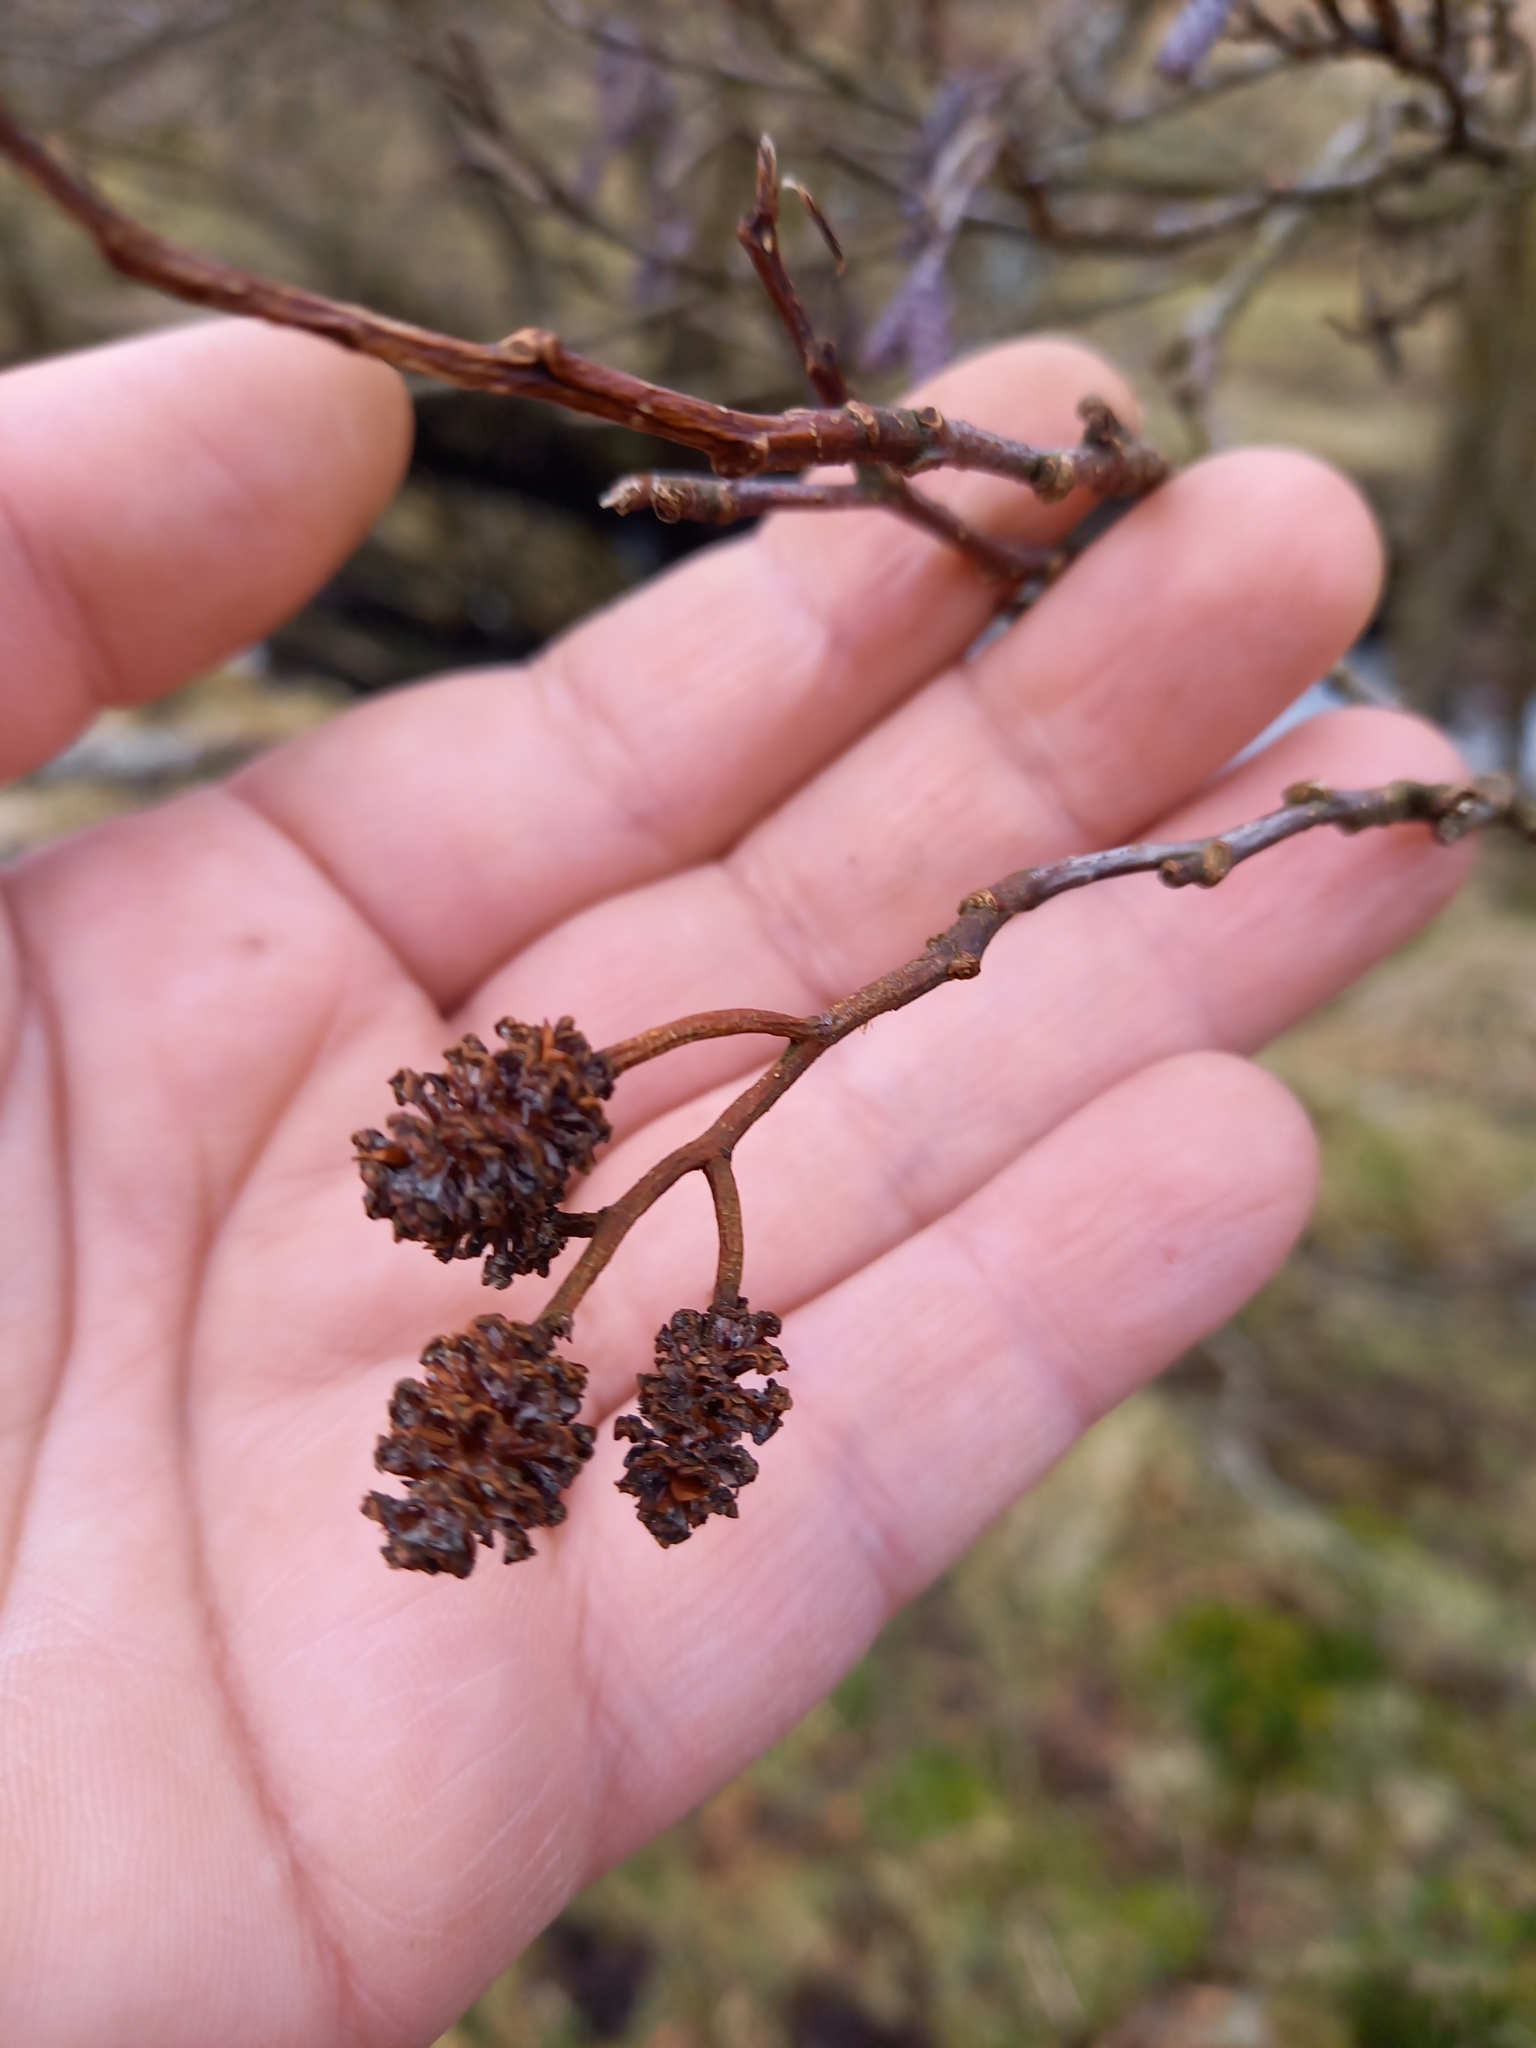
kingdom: Plantae
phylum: Tracheophyta
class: Magnoliopsida
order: Fagales
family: Betulaceae
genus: Alnus
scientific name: Alnus glutinosa
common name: Black alder
